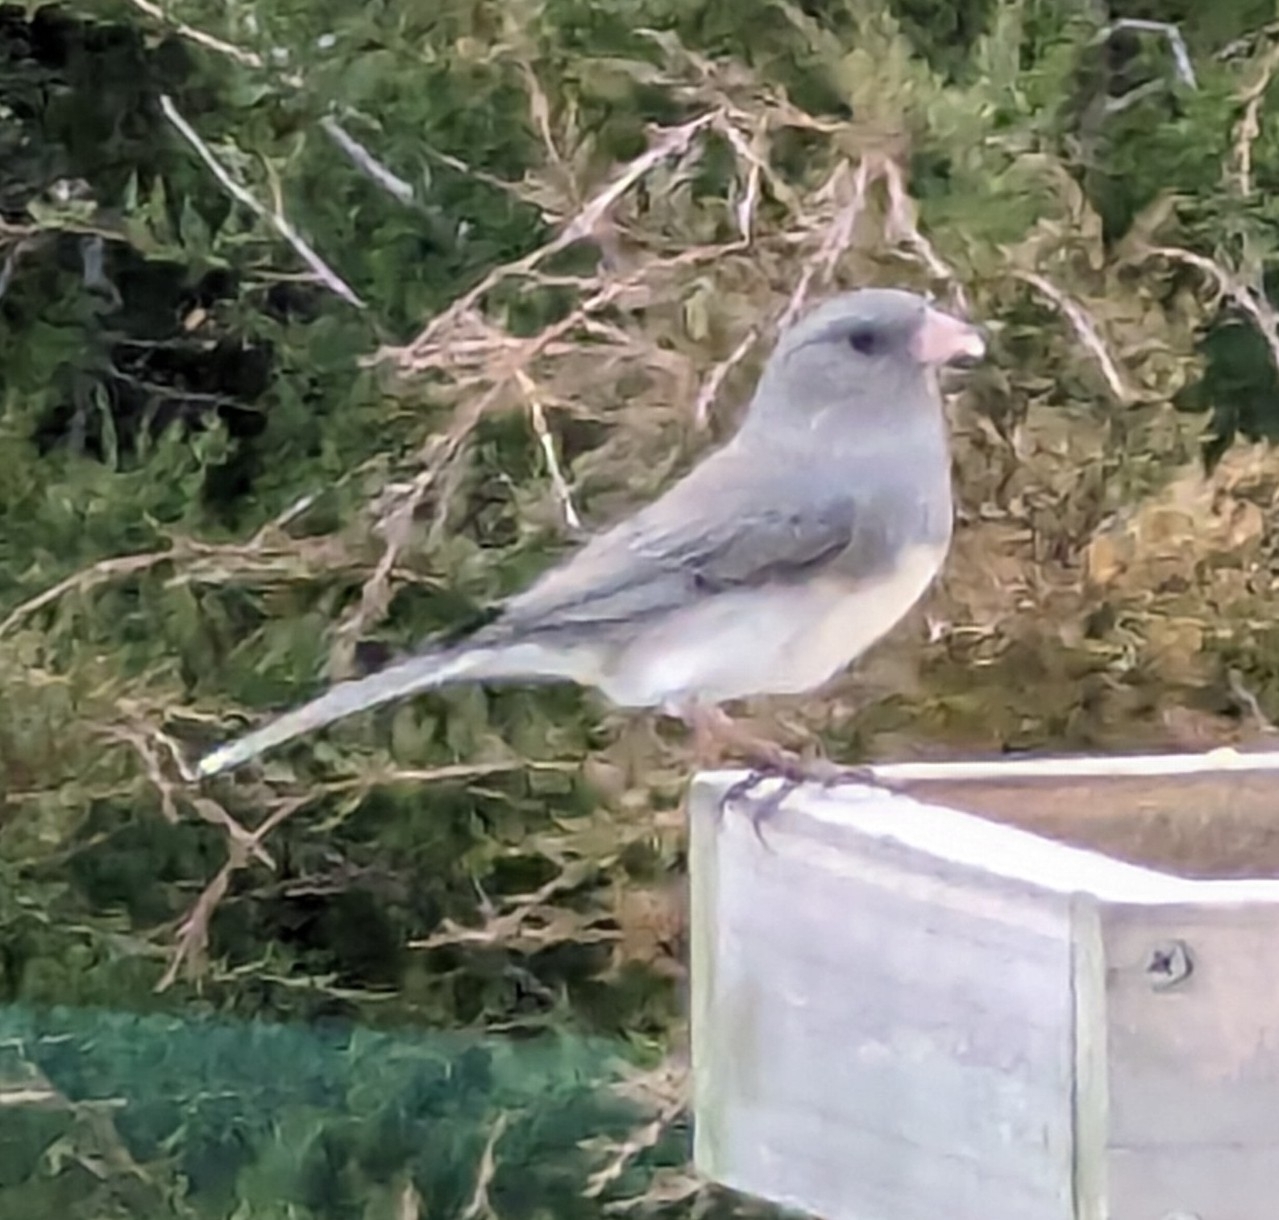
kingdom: Animalia
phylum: Chordata
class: Aves
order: Passeriformes
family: Passerellidae
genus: Junco
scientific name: Junco hyemalis
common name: Dark-eyed junco
